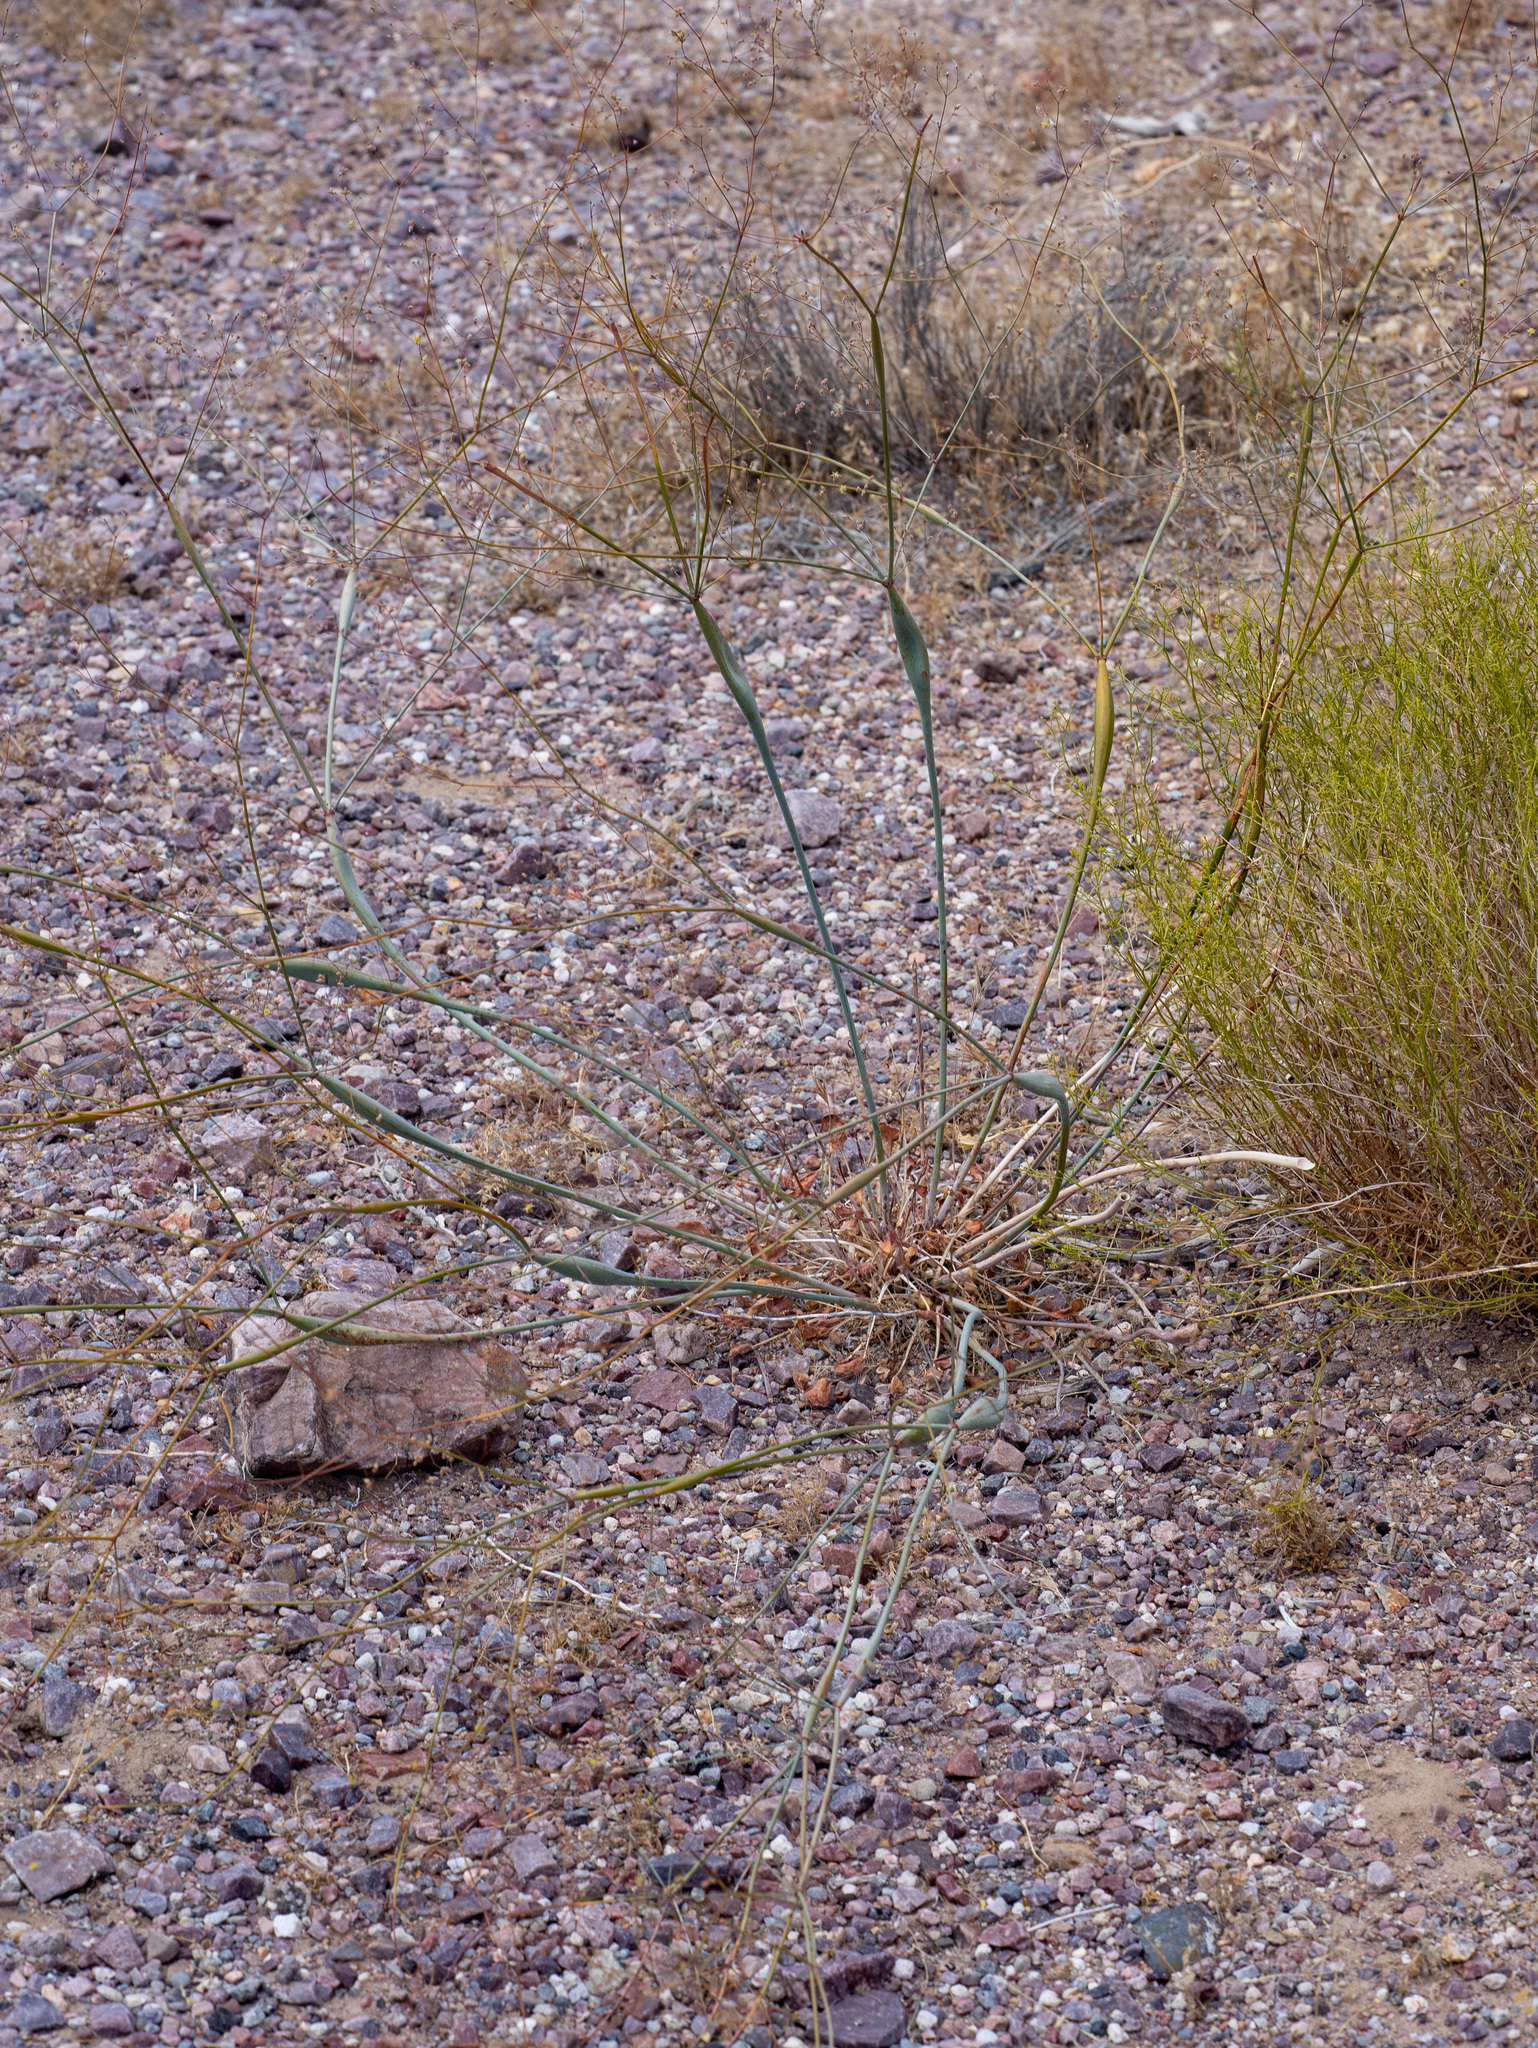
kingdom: Plantae
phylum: Tracheophyta
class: Magnoliopsida
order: Caryophyllales
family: Polygonaceae
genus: Eriogonum
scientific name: Eriogonum inflatum
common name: Desert trumpet
